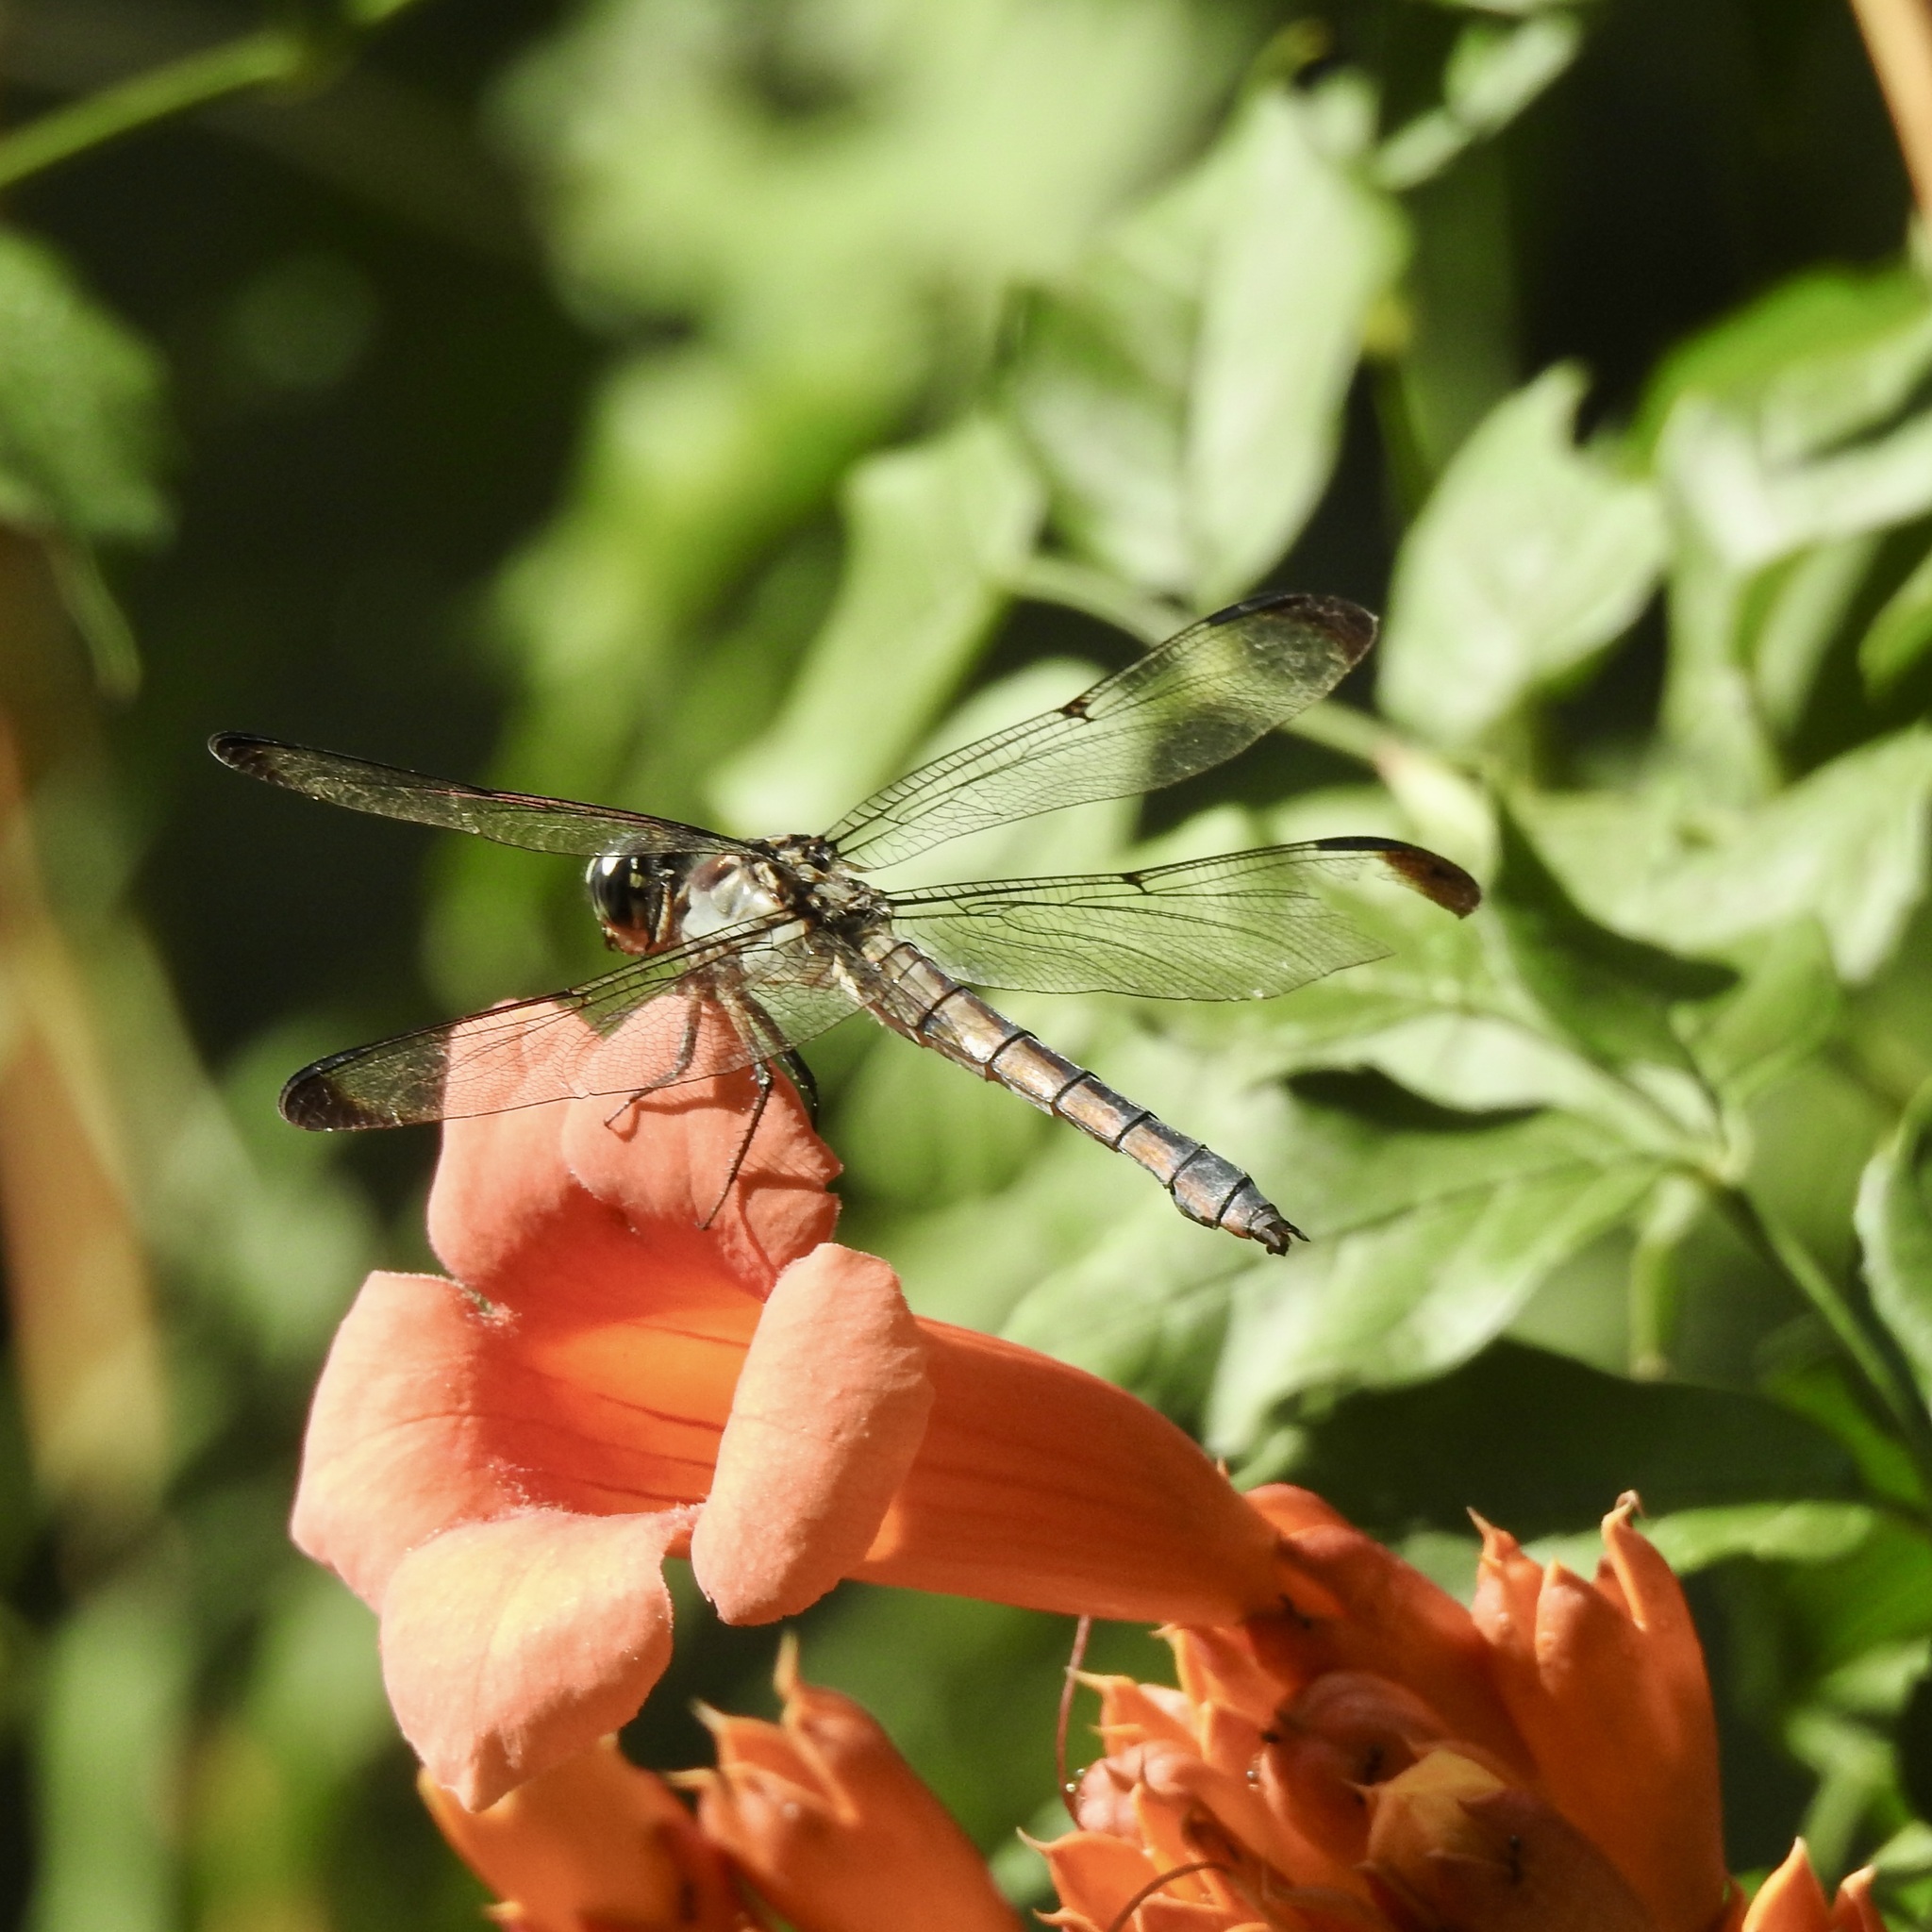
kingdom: Animalia
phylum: Arthropoda
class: Insecta
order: Odonata
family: Libellulidae
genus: Libellula
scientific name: Libellula vibrans
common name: Great blue skimmer
